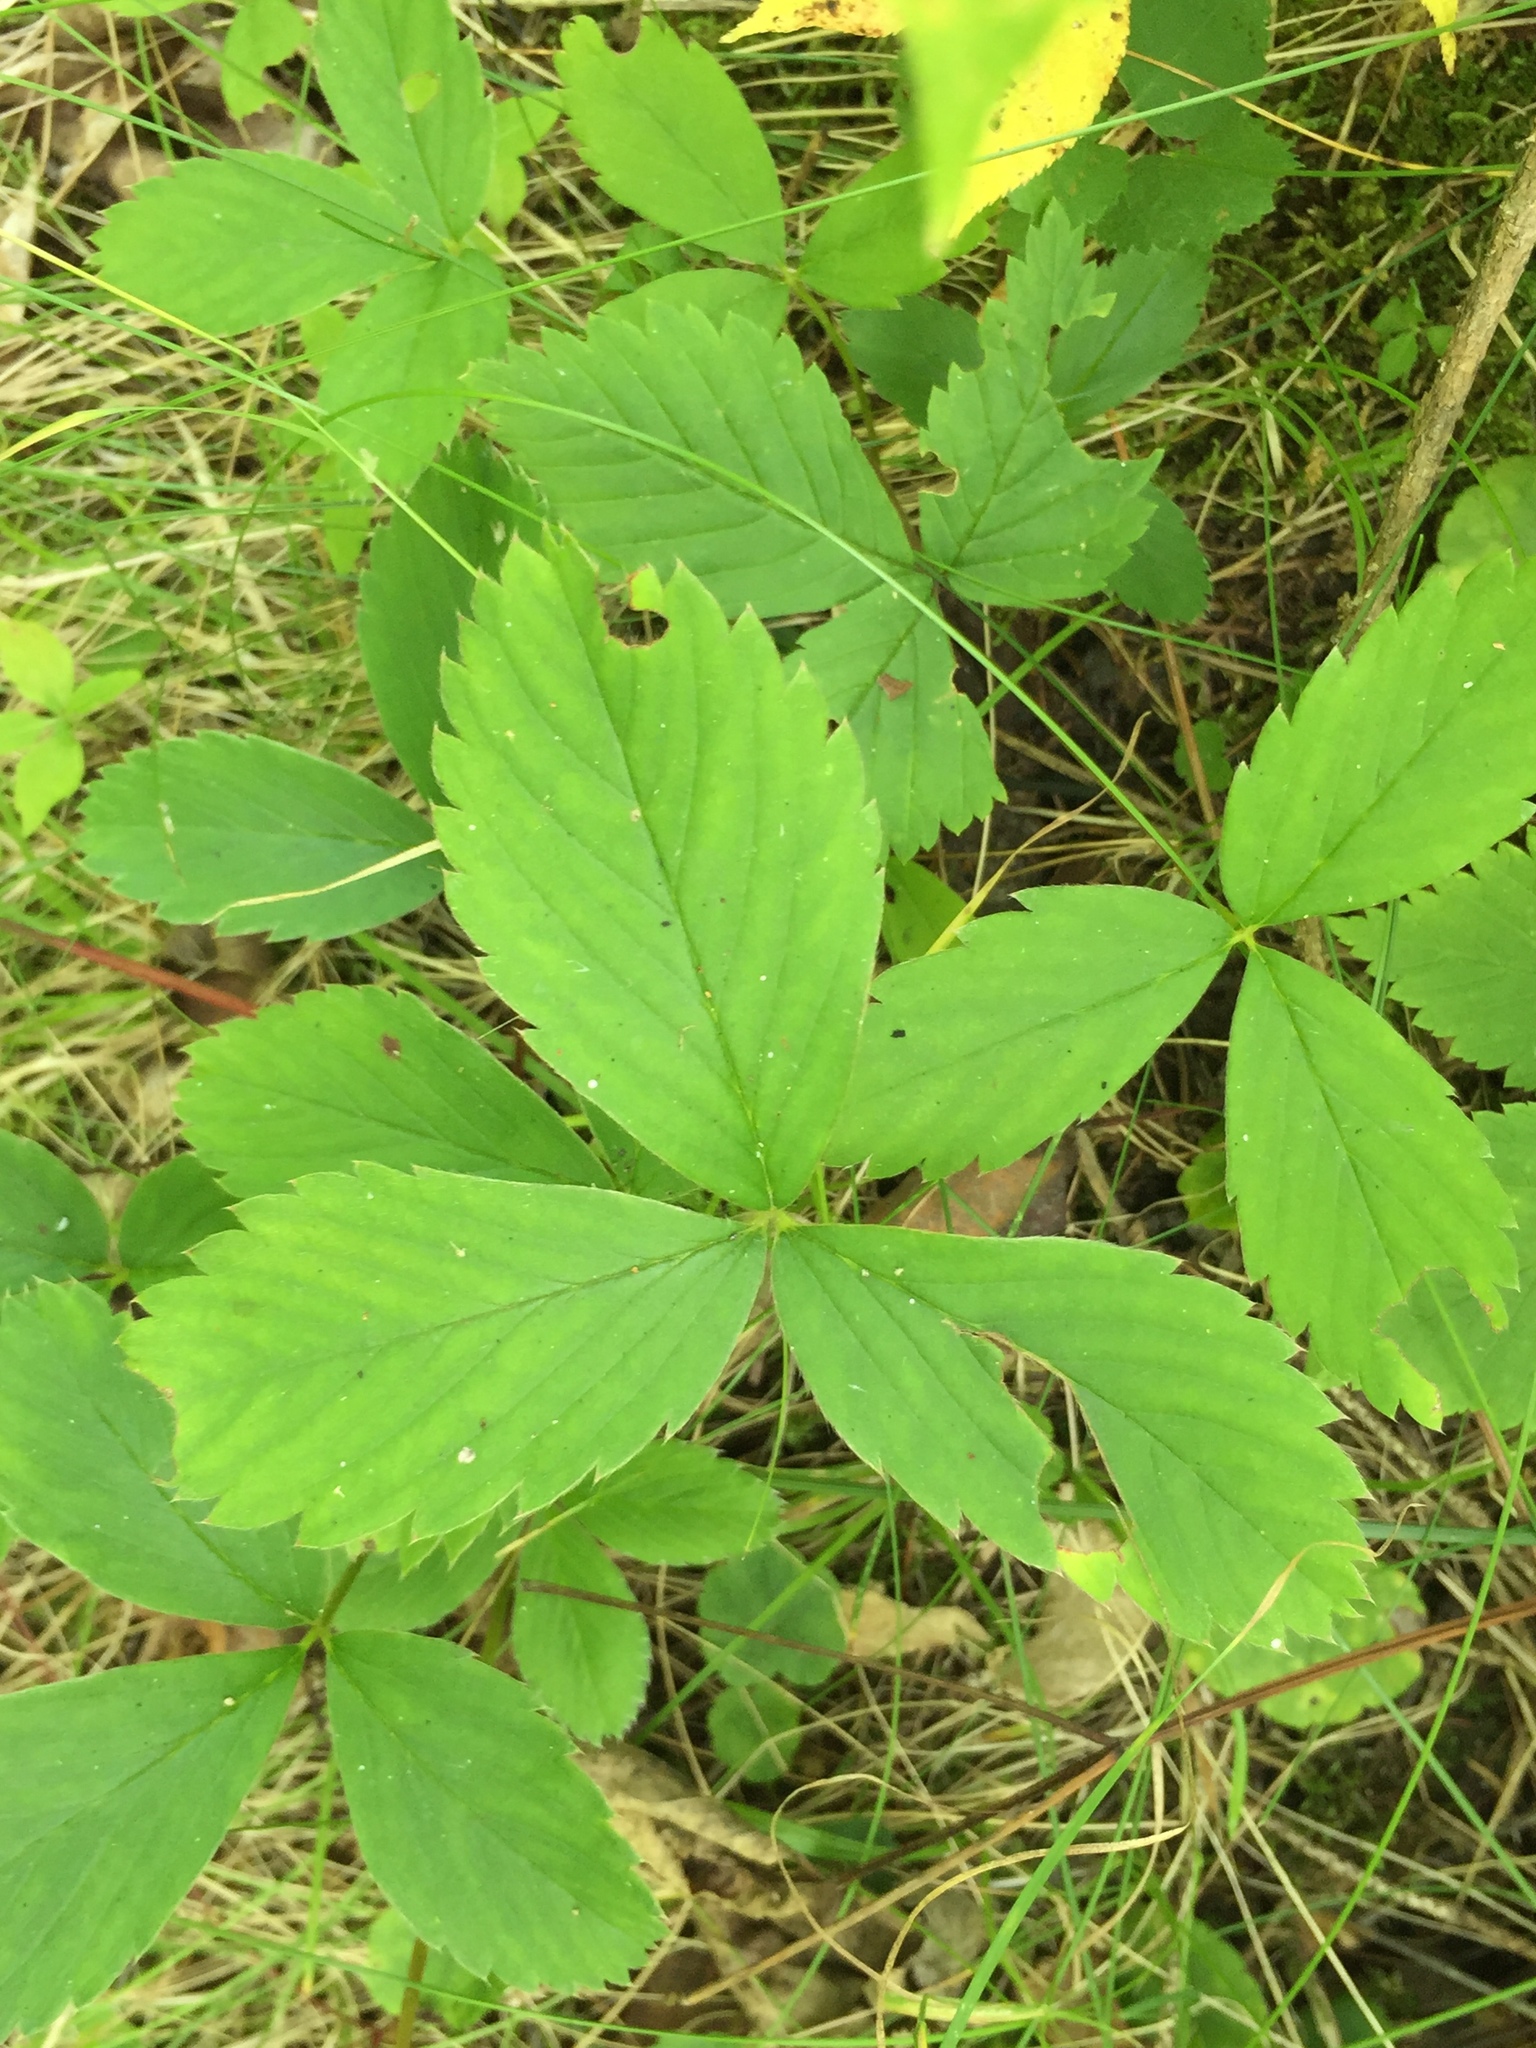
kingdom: Plantae
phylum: Tracheophyta
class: Magnoliopsida
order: Rosales
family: Rosaceae
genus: Fragaria
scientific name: Fragaria virginiana
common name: Thickleaved wild strawberry
